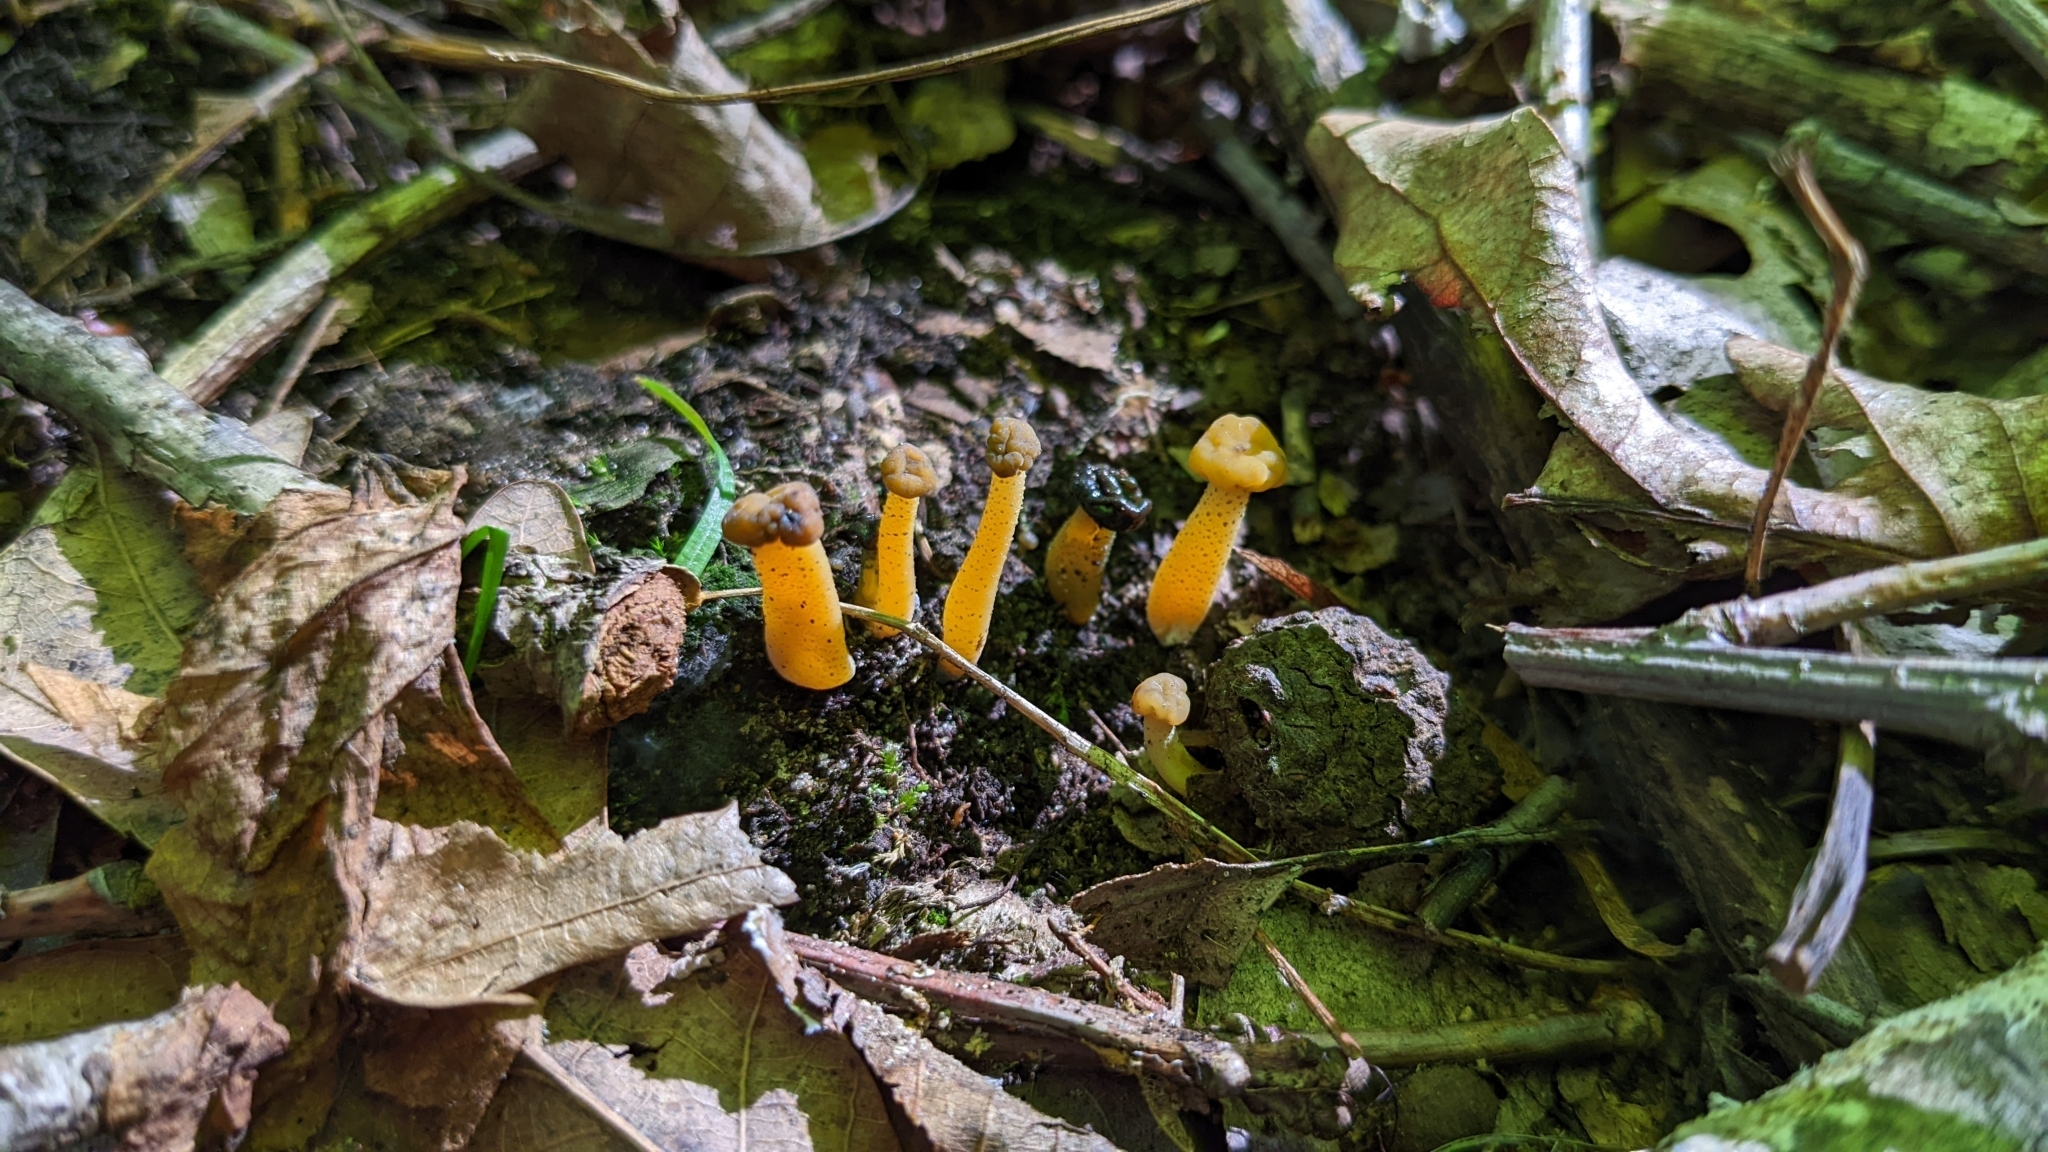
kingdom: Fungi
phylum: Ascomycota
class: Leotiomycetes
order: Leotiales
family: Leotiaceae
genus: Leotia
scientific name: Leotia lubrica
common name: Jellybaby
